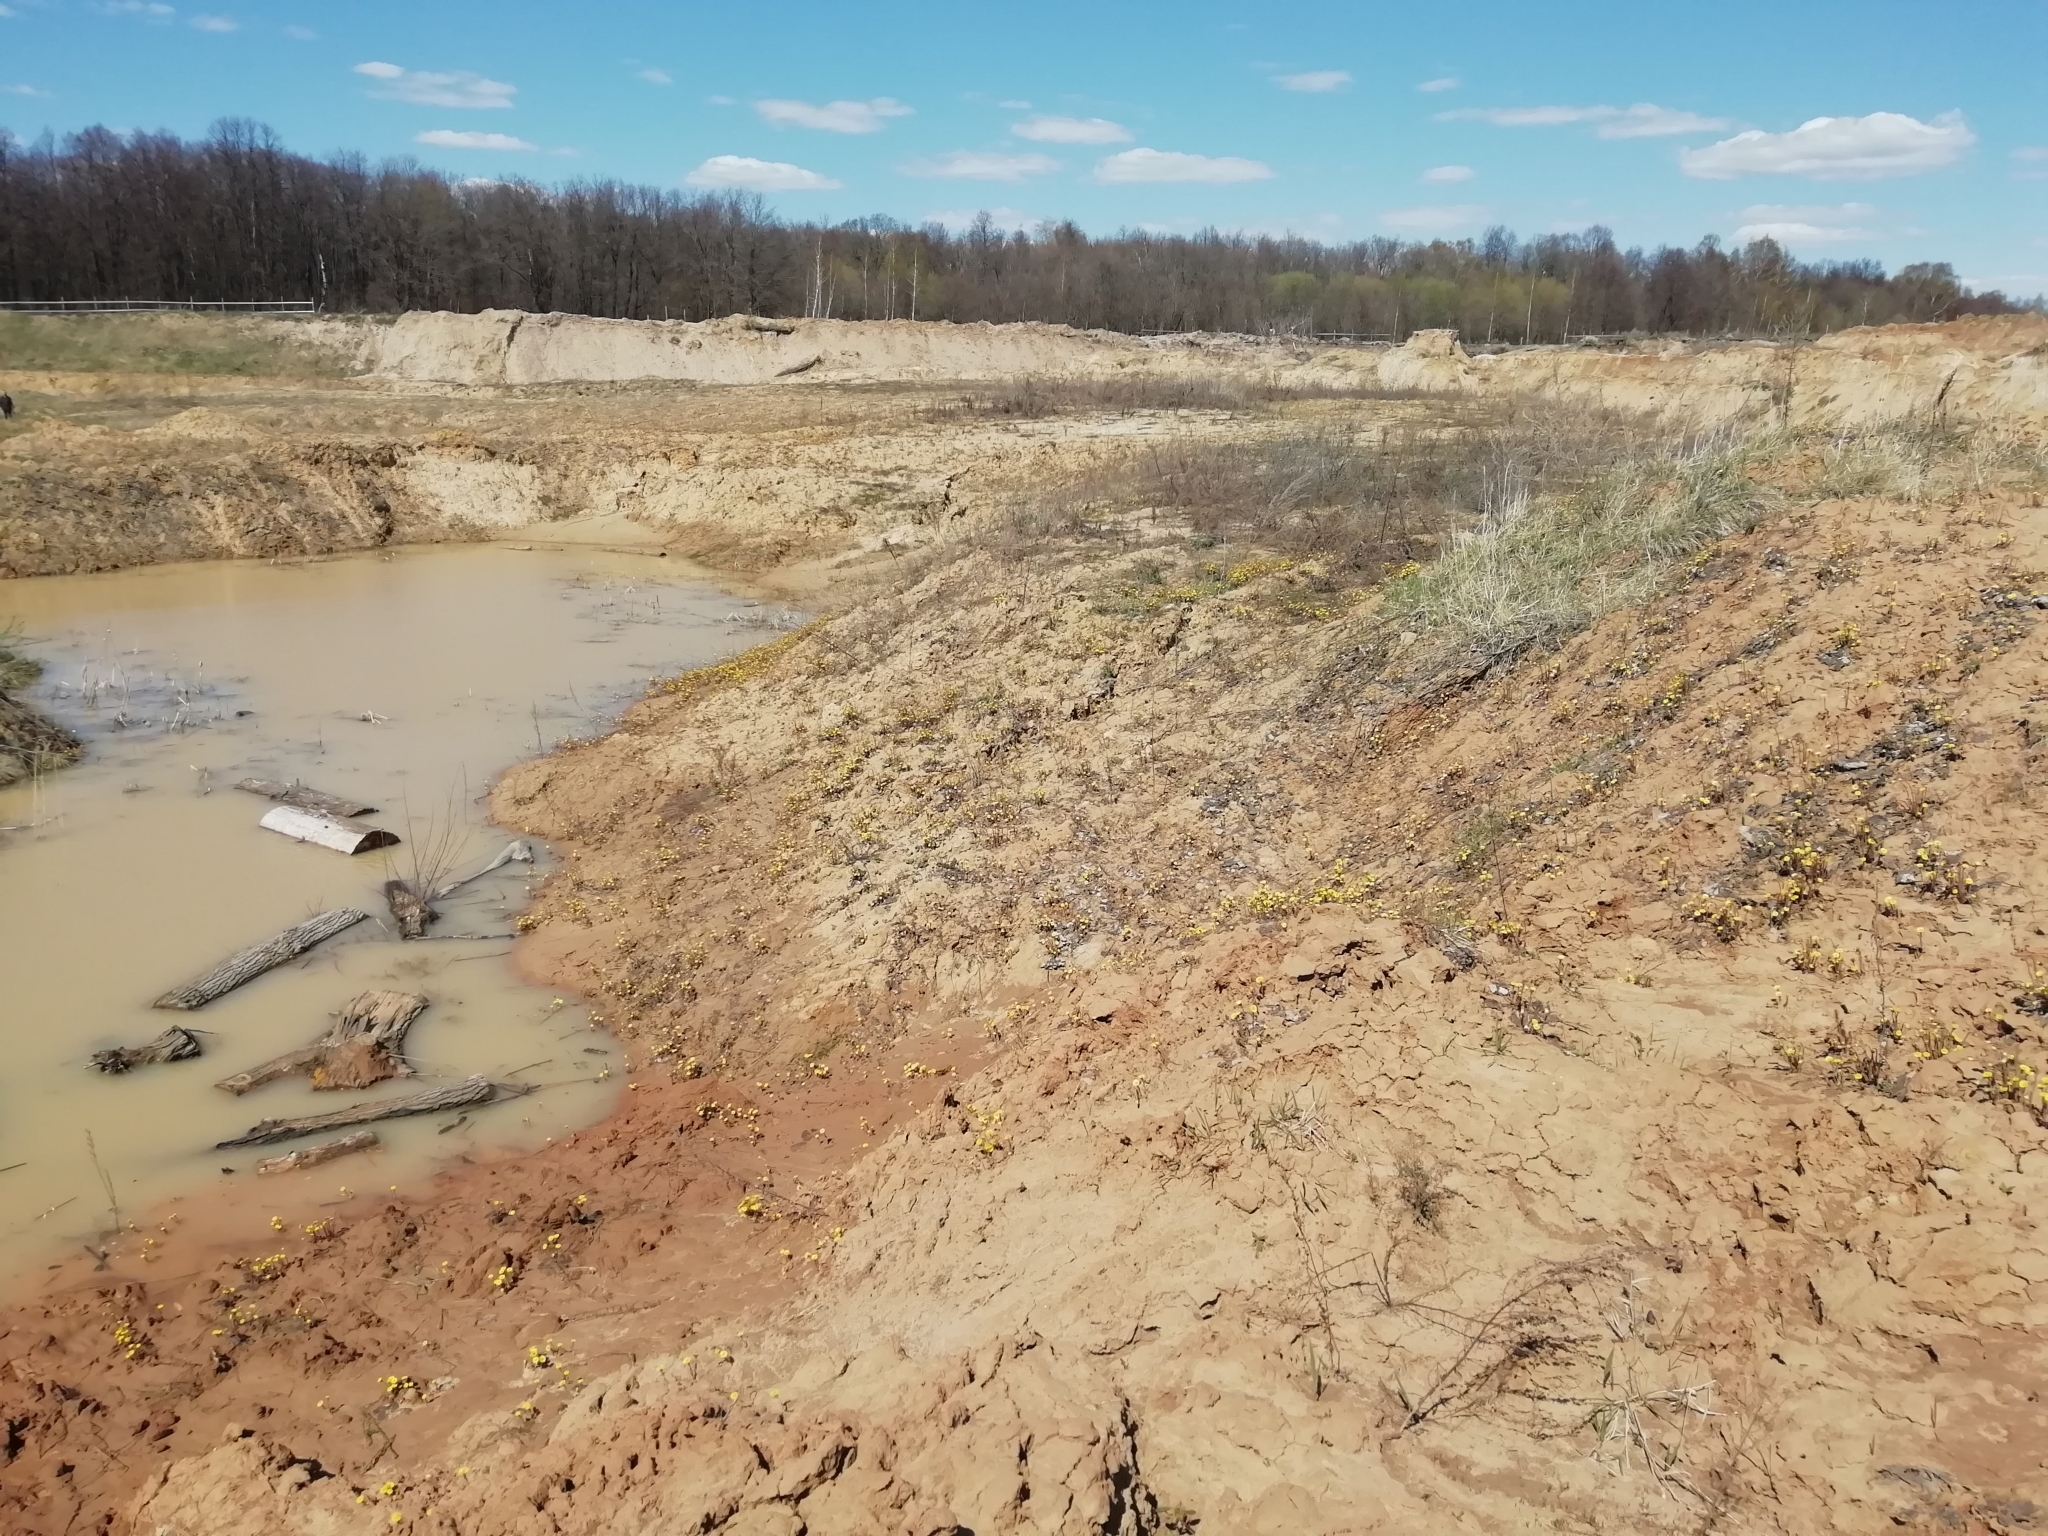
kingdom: Plantae
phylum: Tracheophyta
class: Magnoliopsida
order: Asterales
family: Asteraceae
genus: Tussilago
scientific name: Tussilago farfara
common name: Coltsfoot
